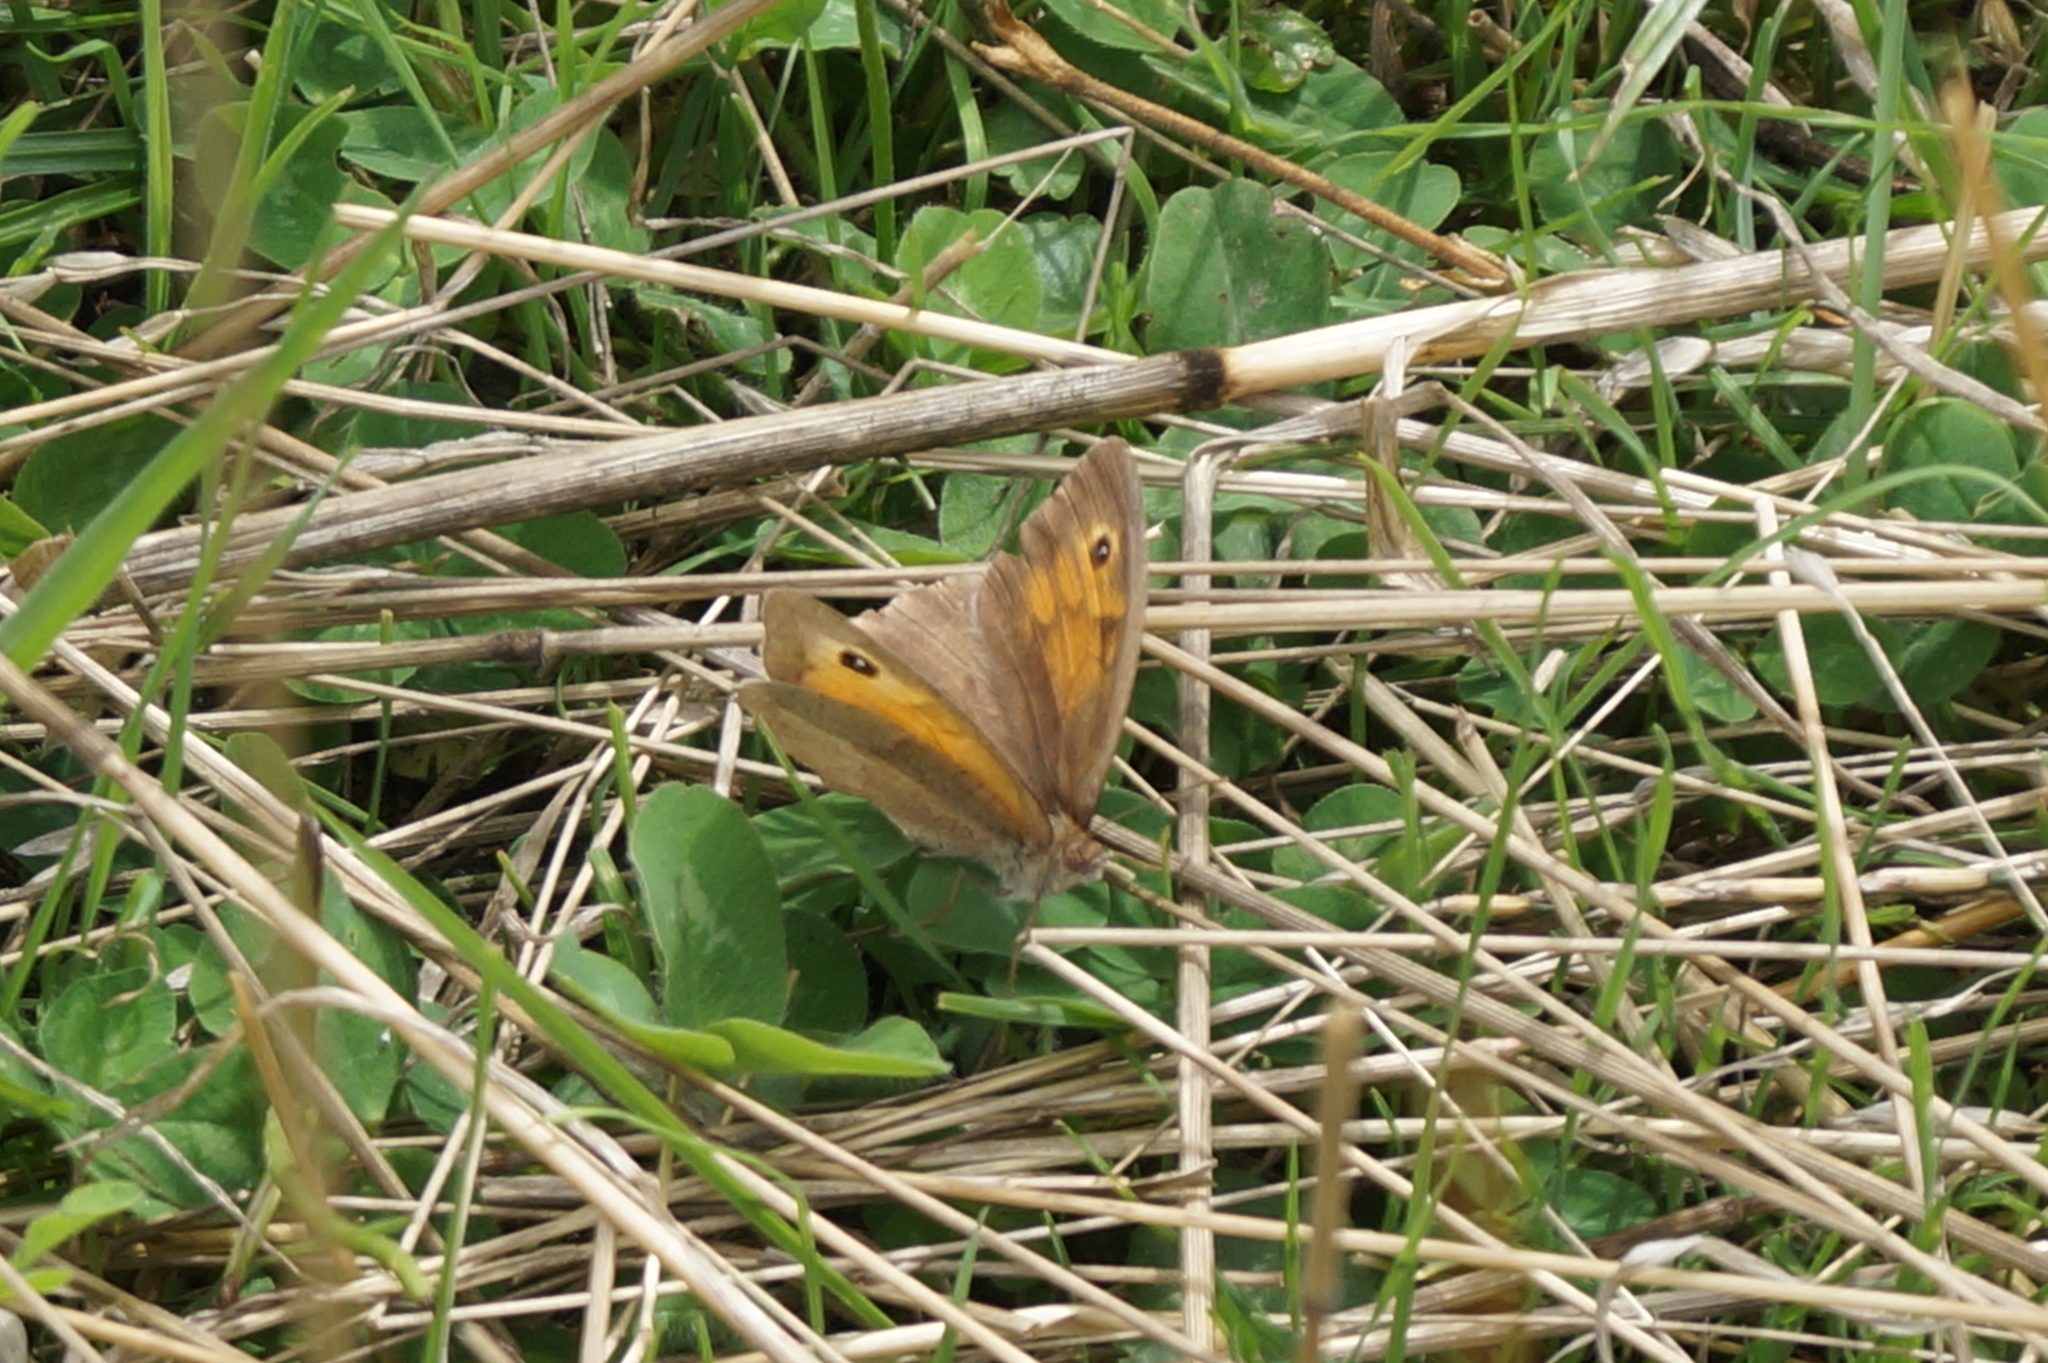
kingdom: Animalia
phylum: Arthropoda
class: Insecta
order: Lepidoptera
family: Nymphalidae
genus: Maniola
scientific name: Maniola jurtina
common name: Meadow brown
